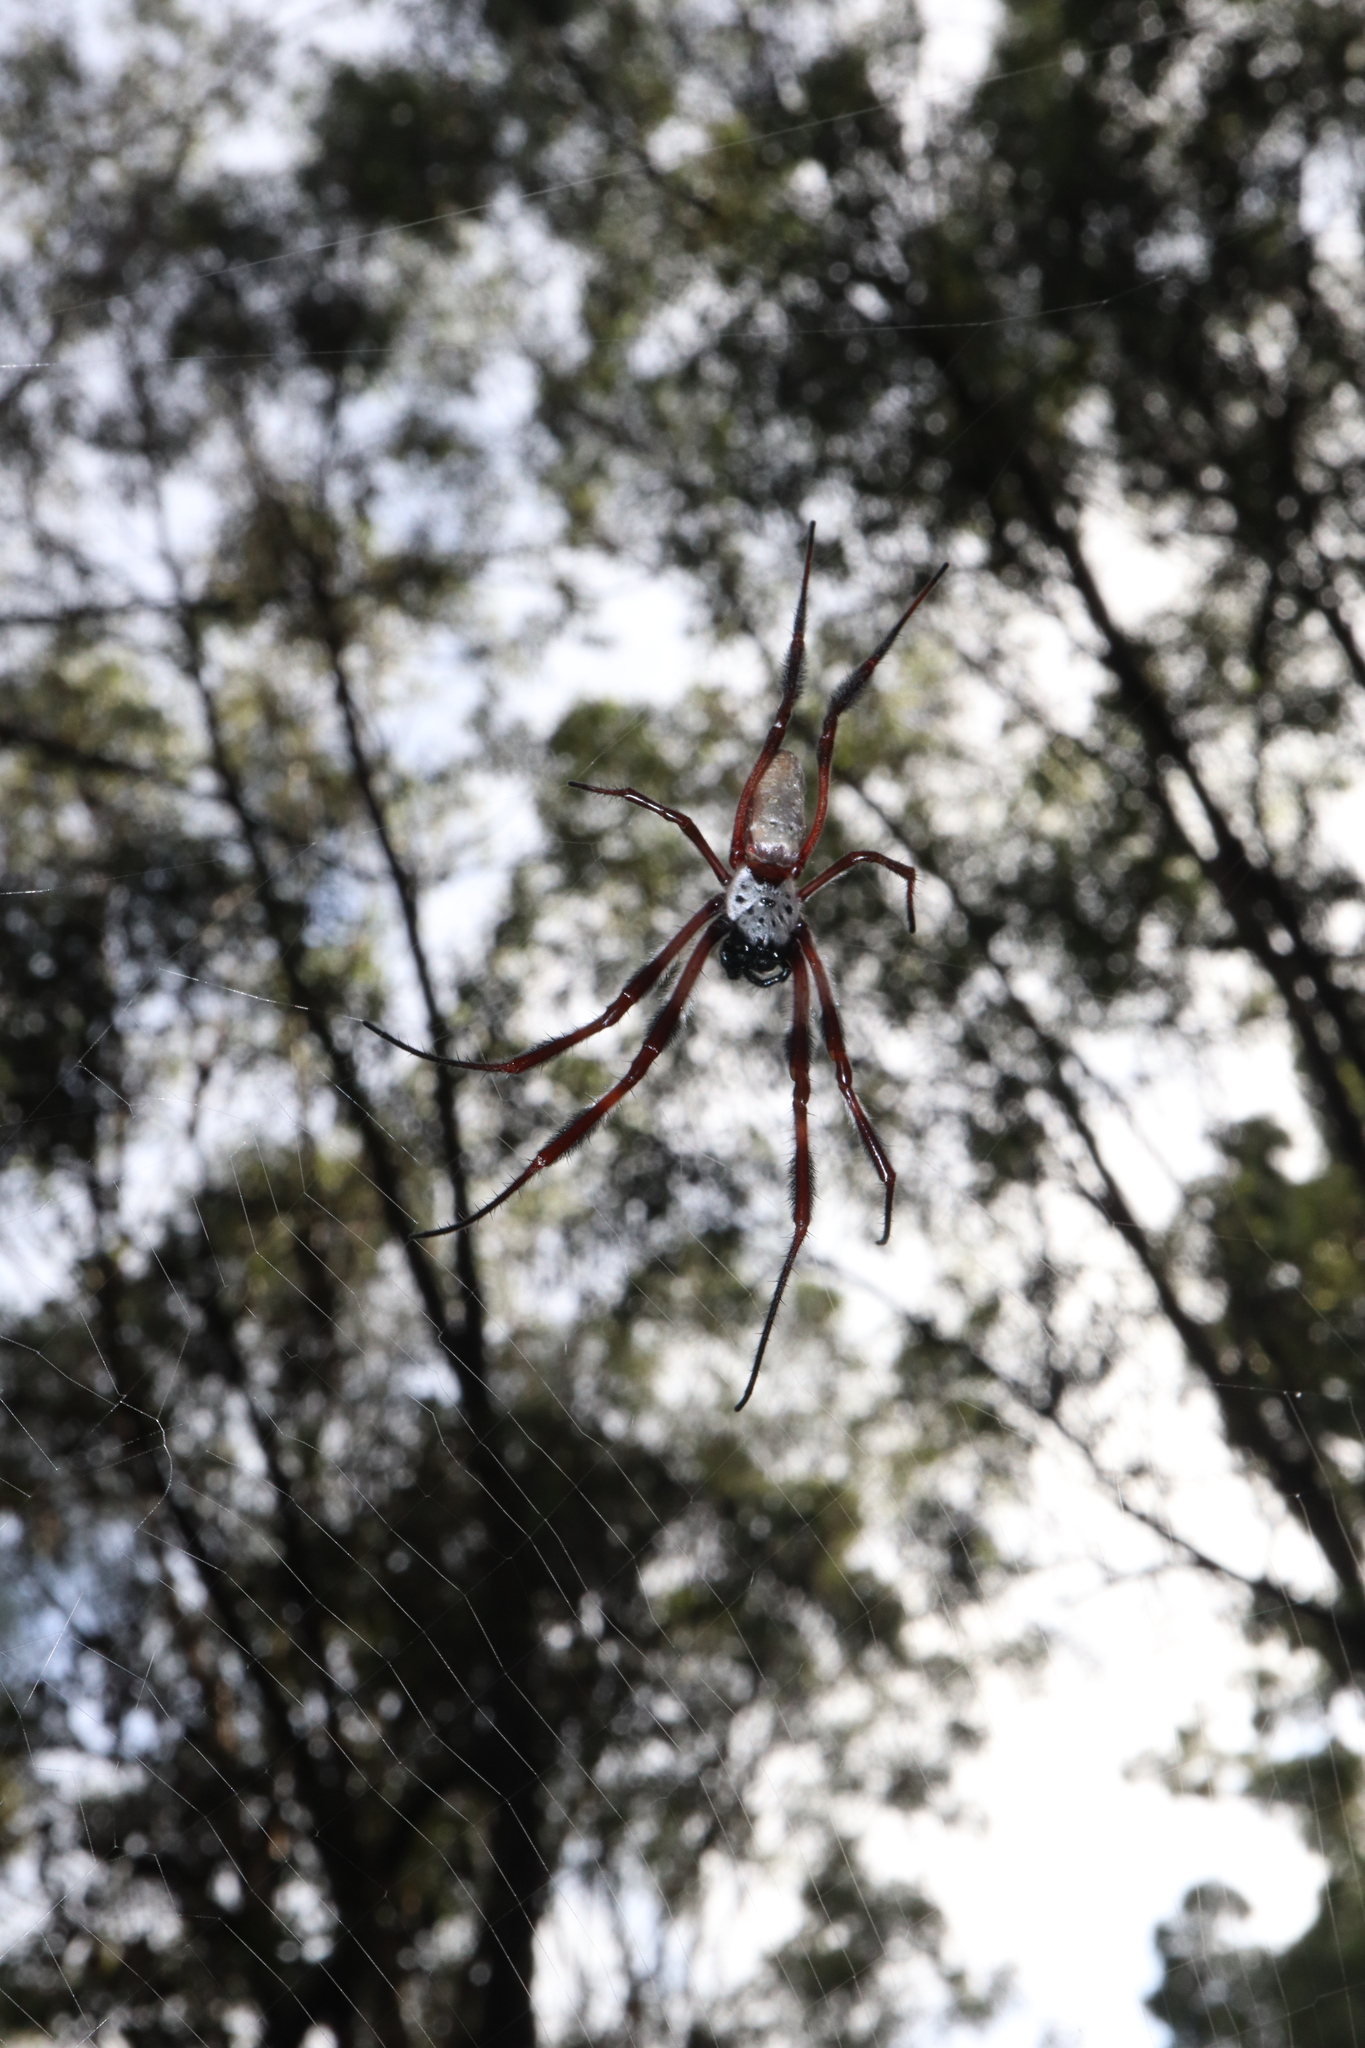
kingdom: Animalia
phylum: Arthropoda
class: Arachnida
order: Araneae
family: Araneidae
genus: Trichonephila
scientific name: Trichonephila edulis
